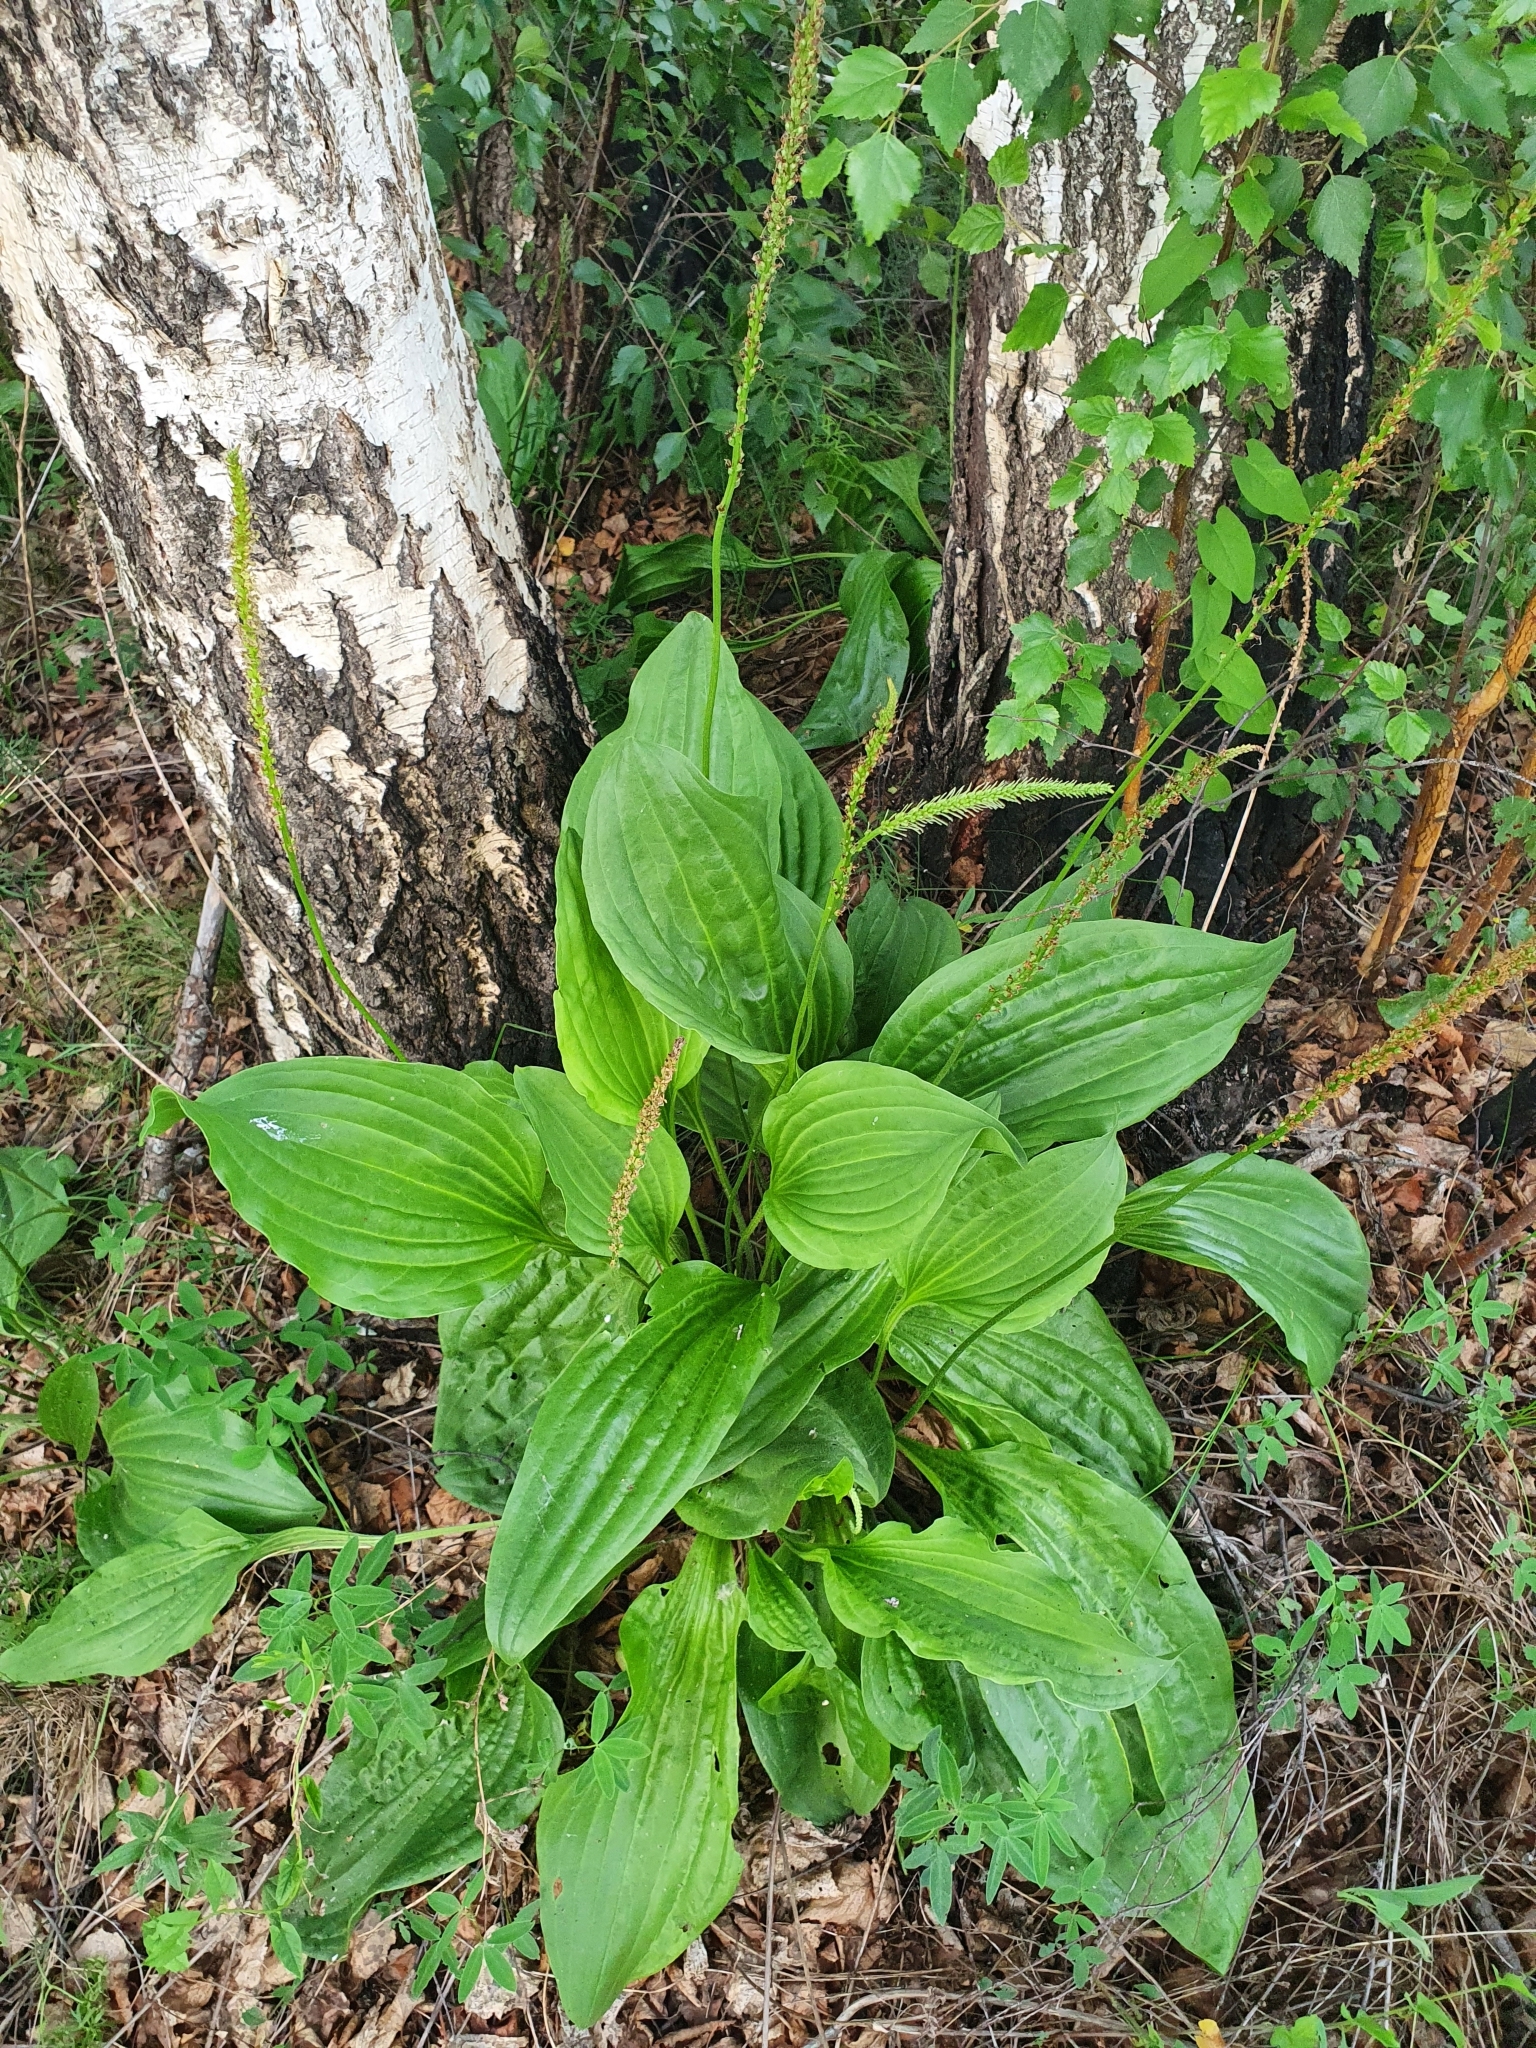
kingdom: Plantae
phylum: Tracheophyta
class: Magnoliopsida
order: Lamiales
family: Plantaginaceae
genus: Plantago
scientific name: Plantago cornuti
